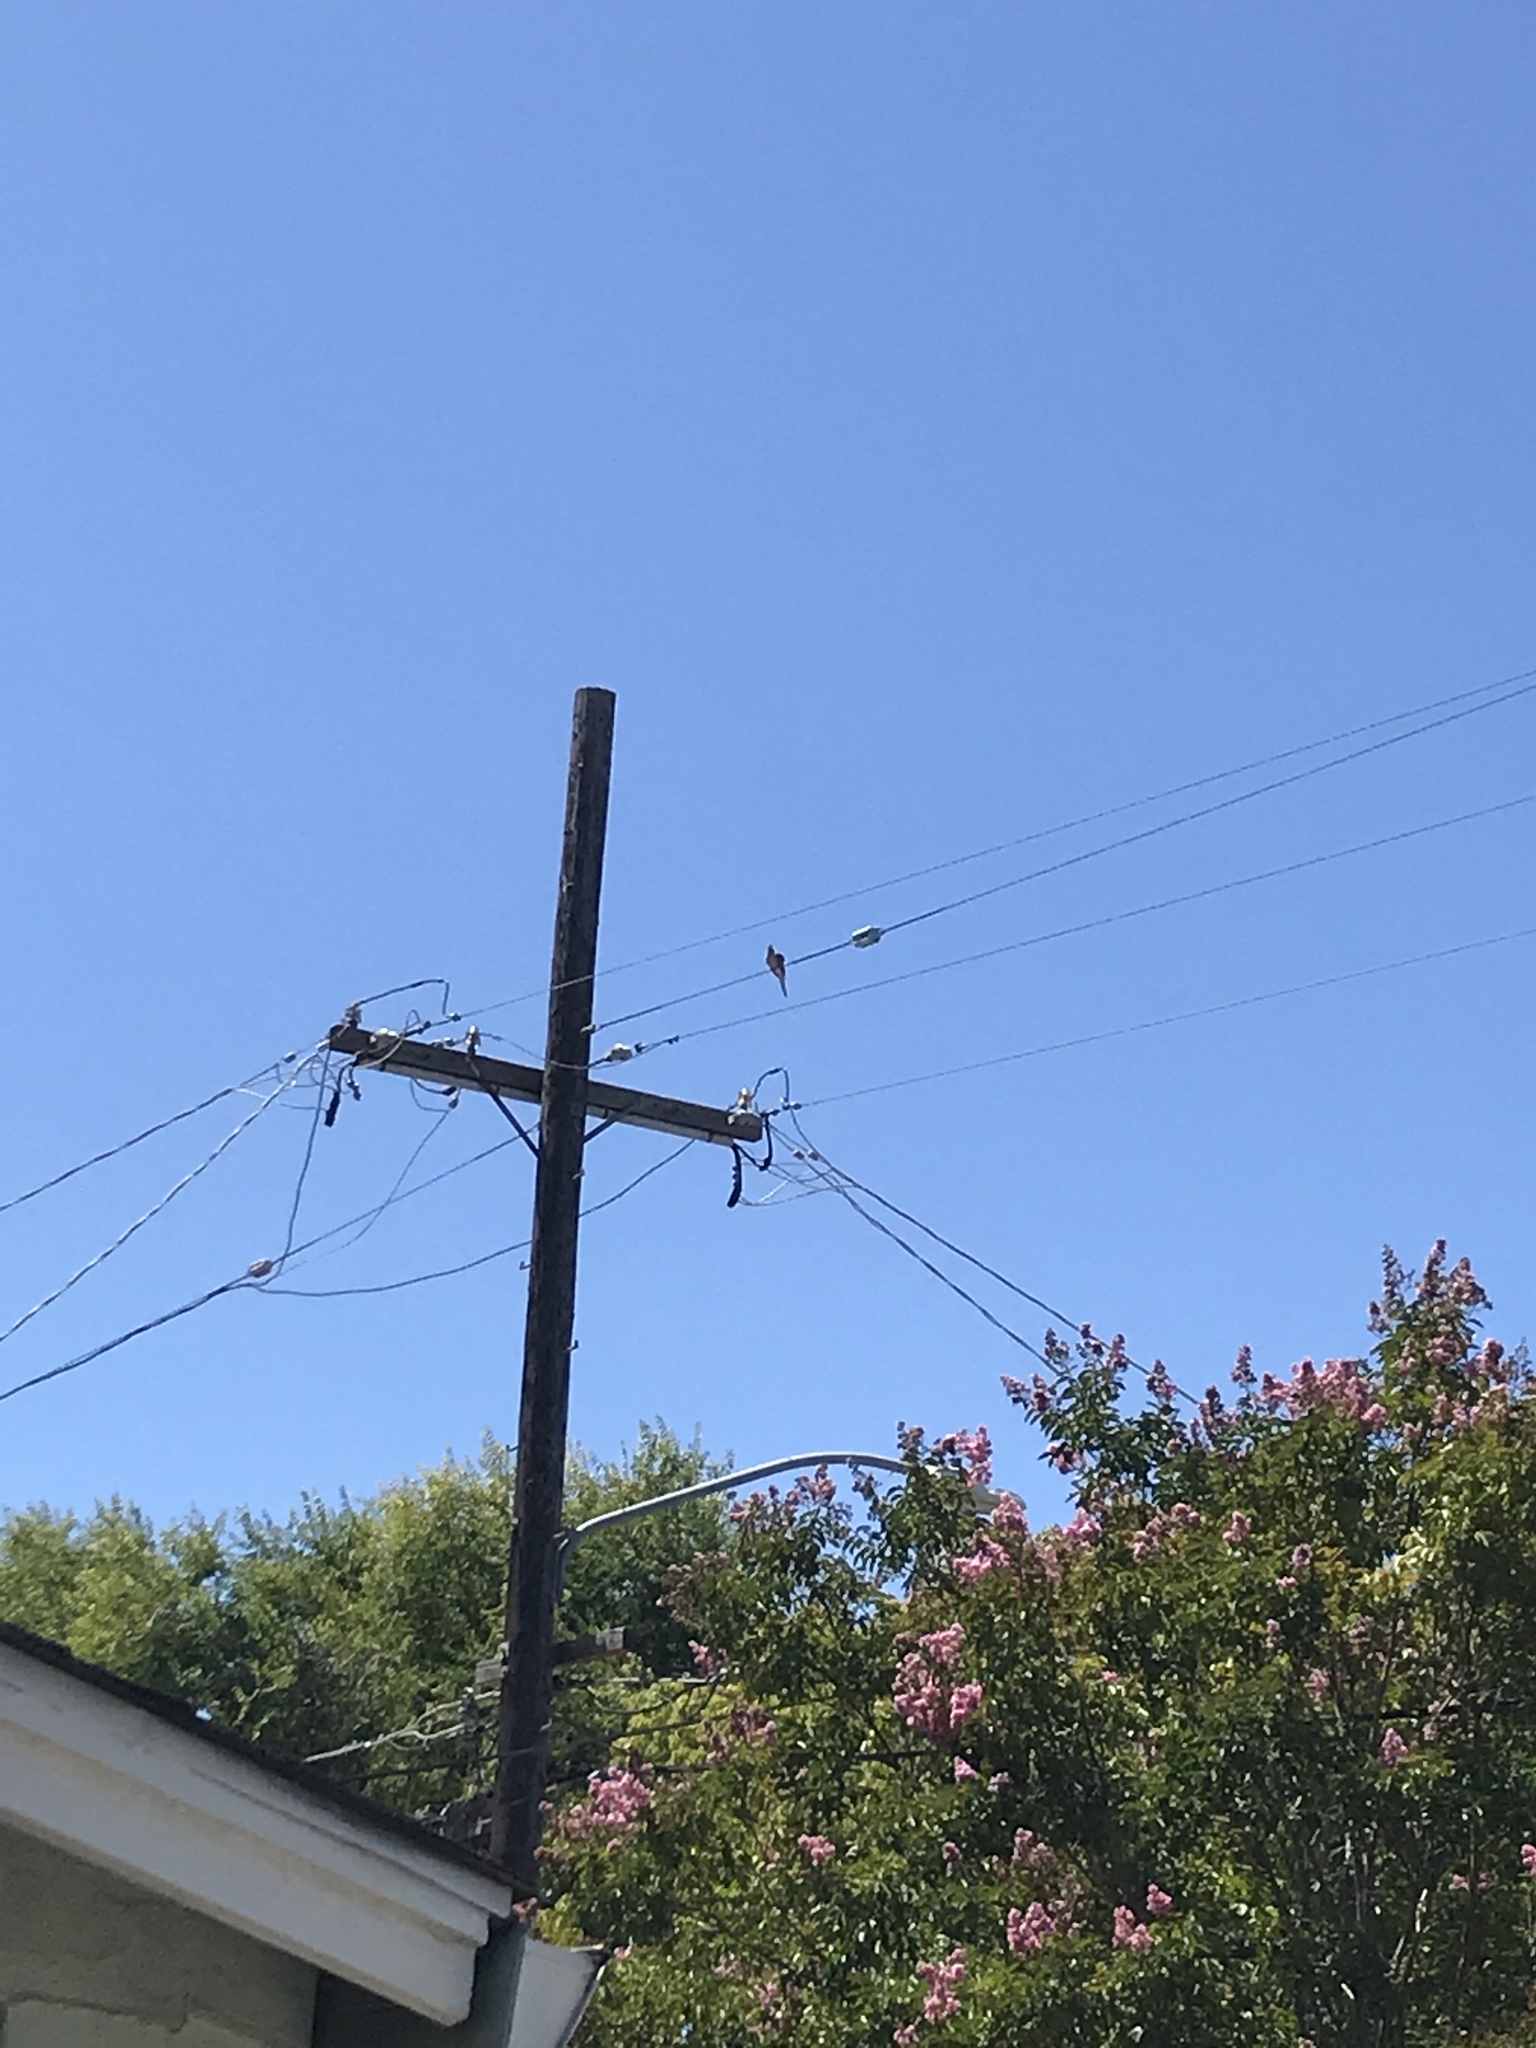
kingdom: Animalia
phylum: Chordata
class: Aves
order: Columbiformes
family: Columbidae
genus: Zenaida
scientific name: Zenaida macroura
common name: Mourning dove
